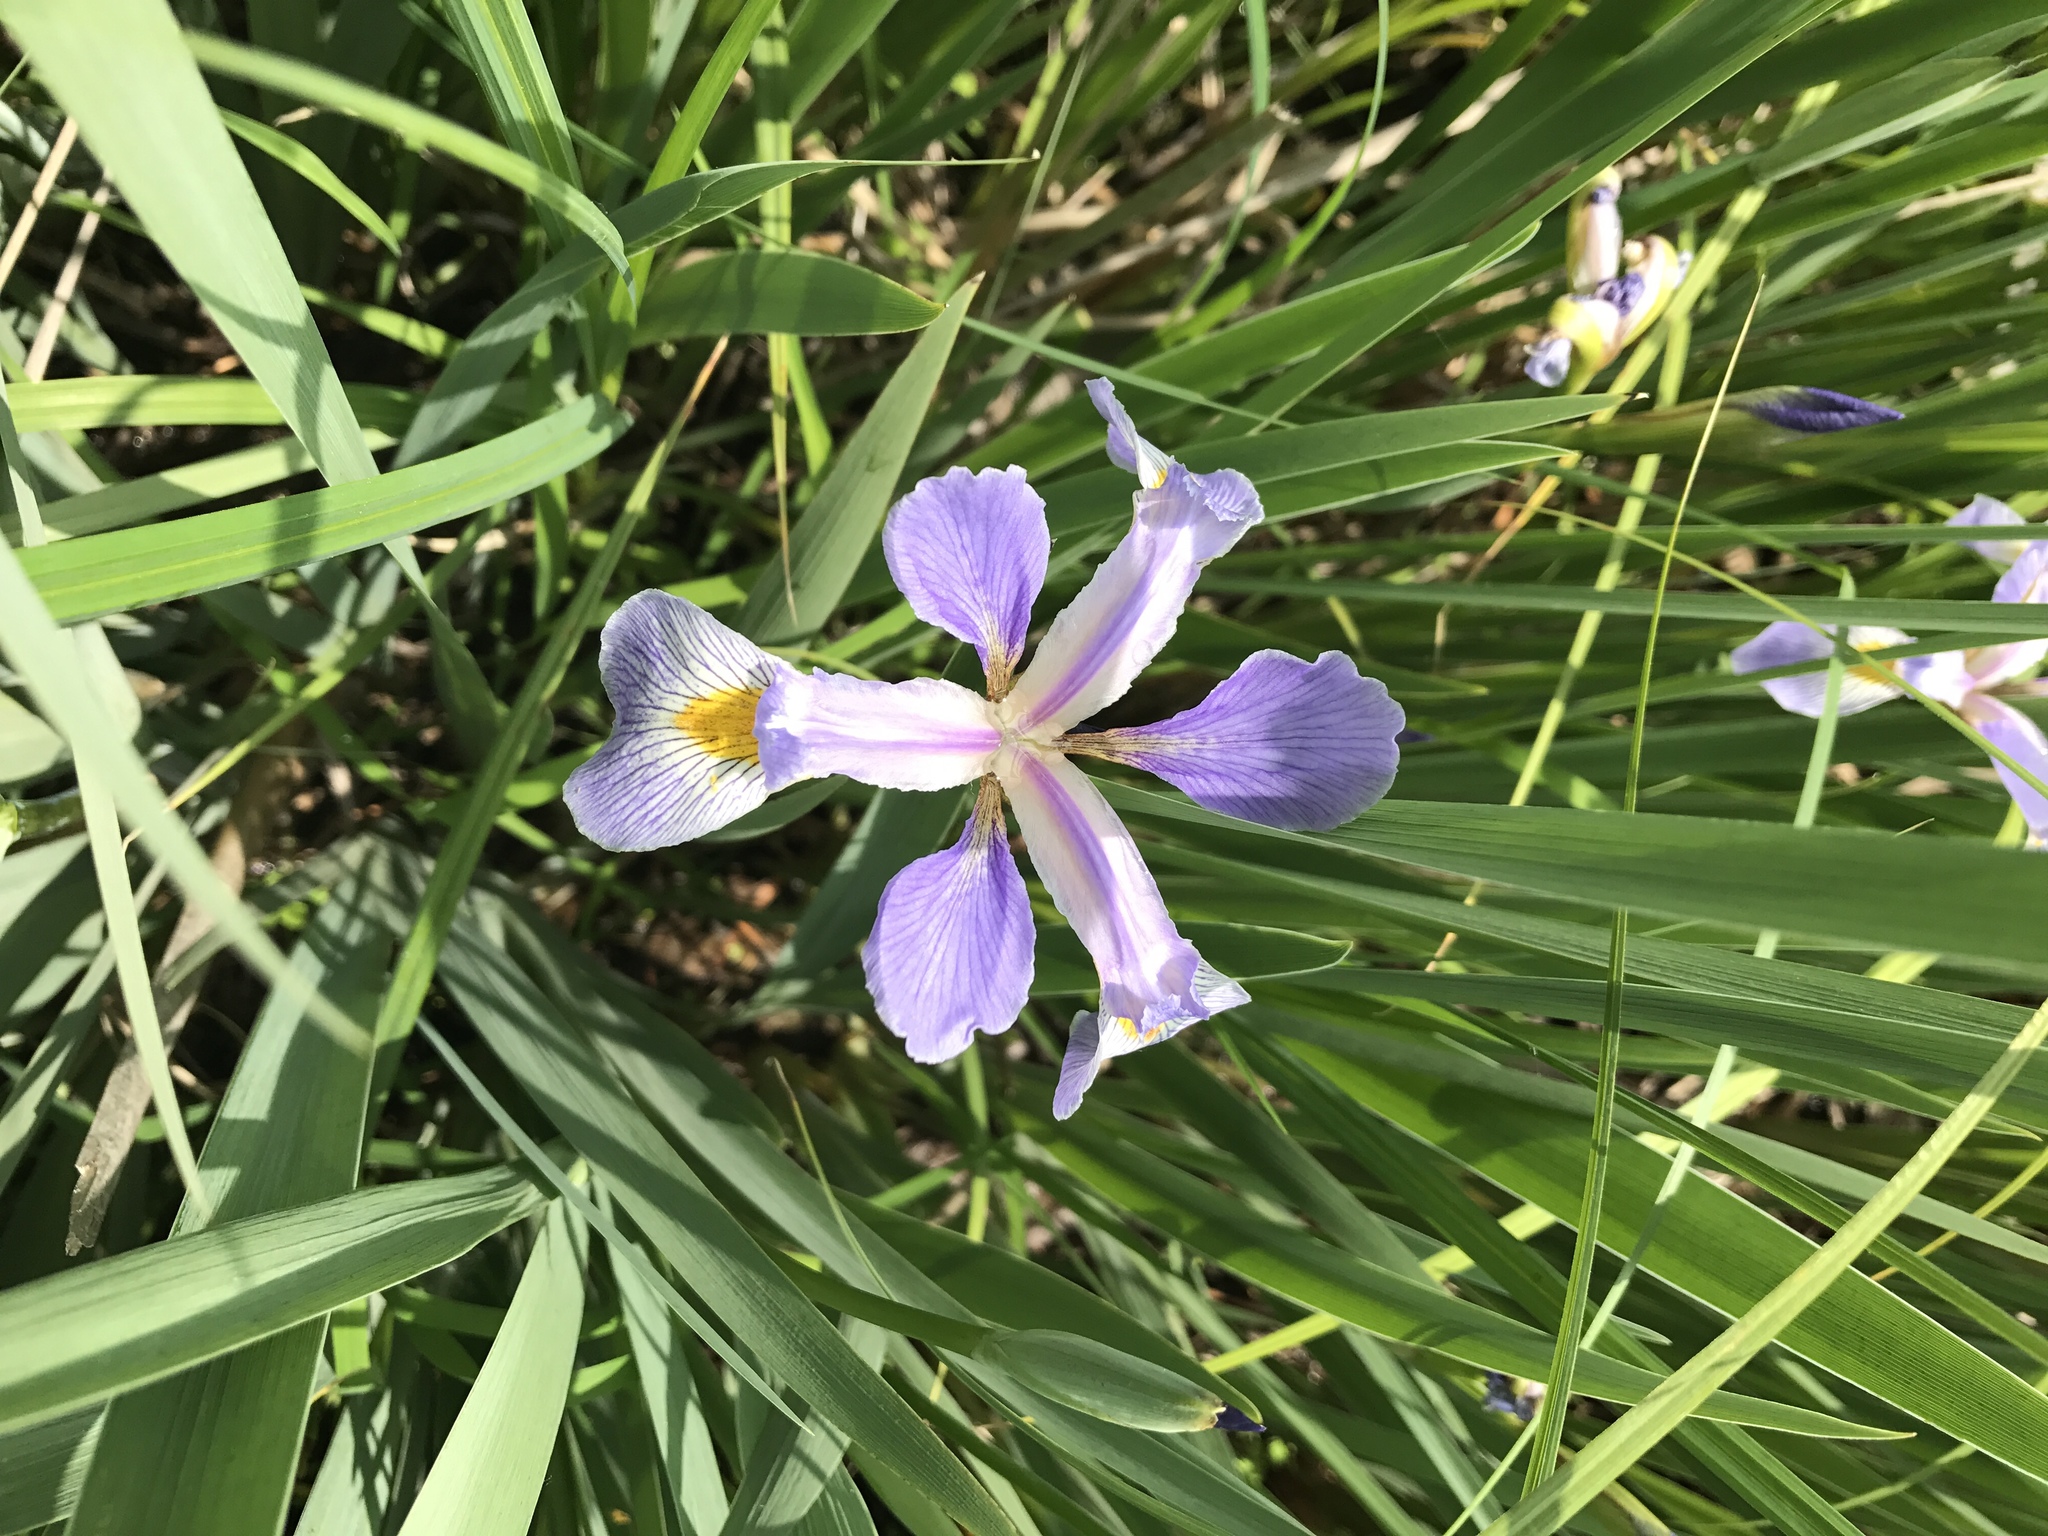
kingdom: Plantae
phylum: Tracheophyta
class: Liliopsida
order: Asparagales
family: Iridaceae
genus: Iris
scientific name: Iris virginica
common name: Southern blue flag
